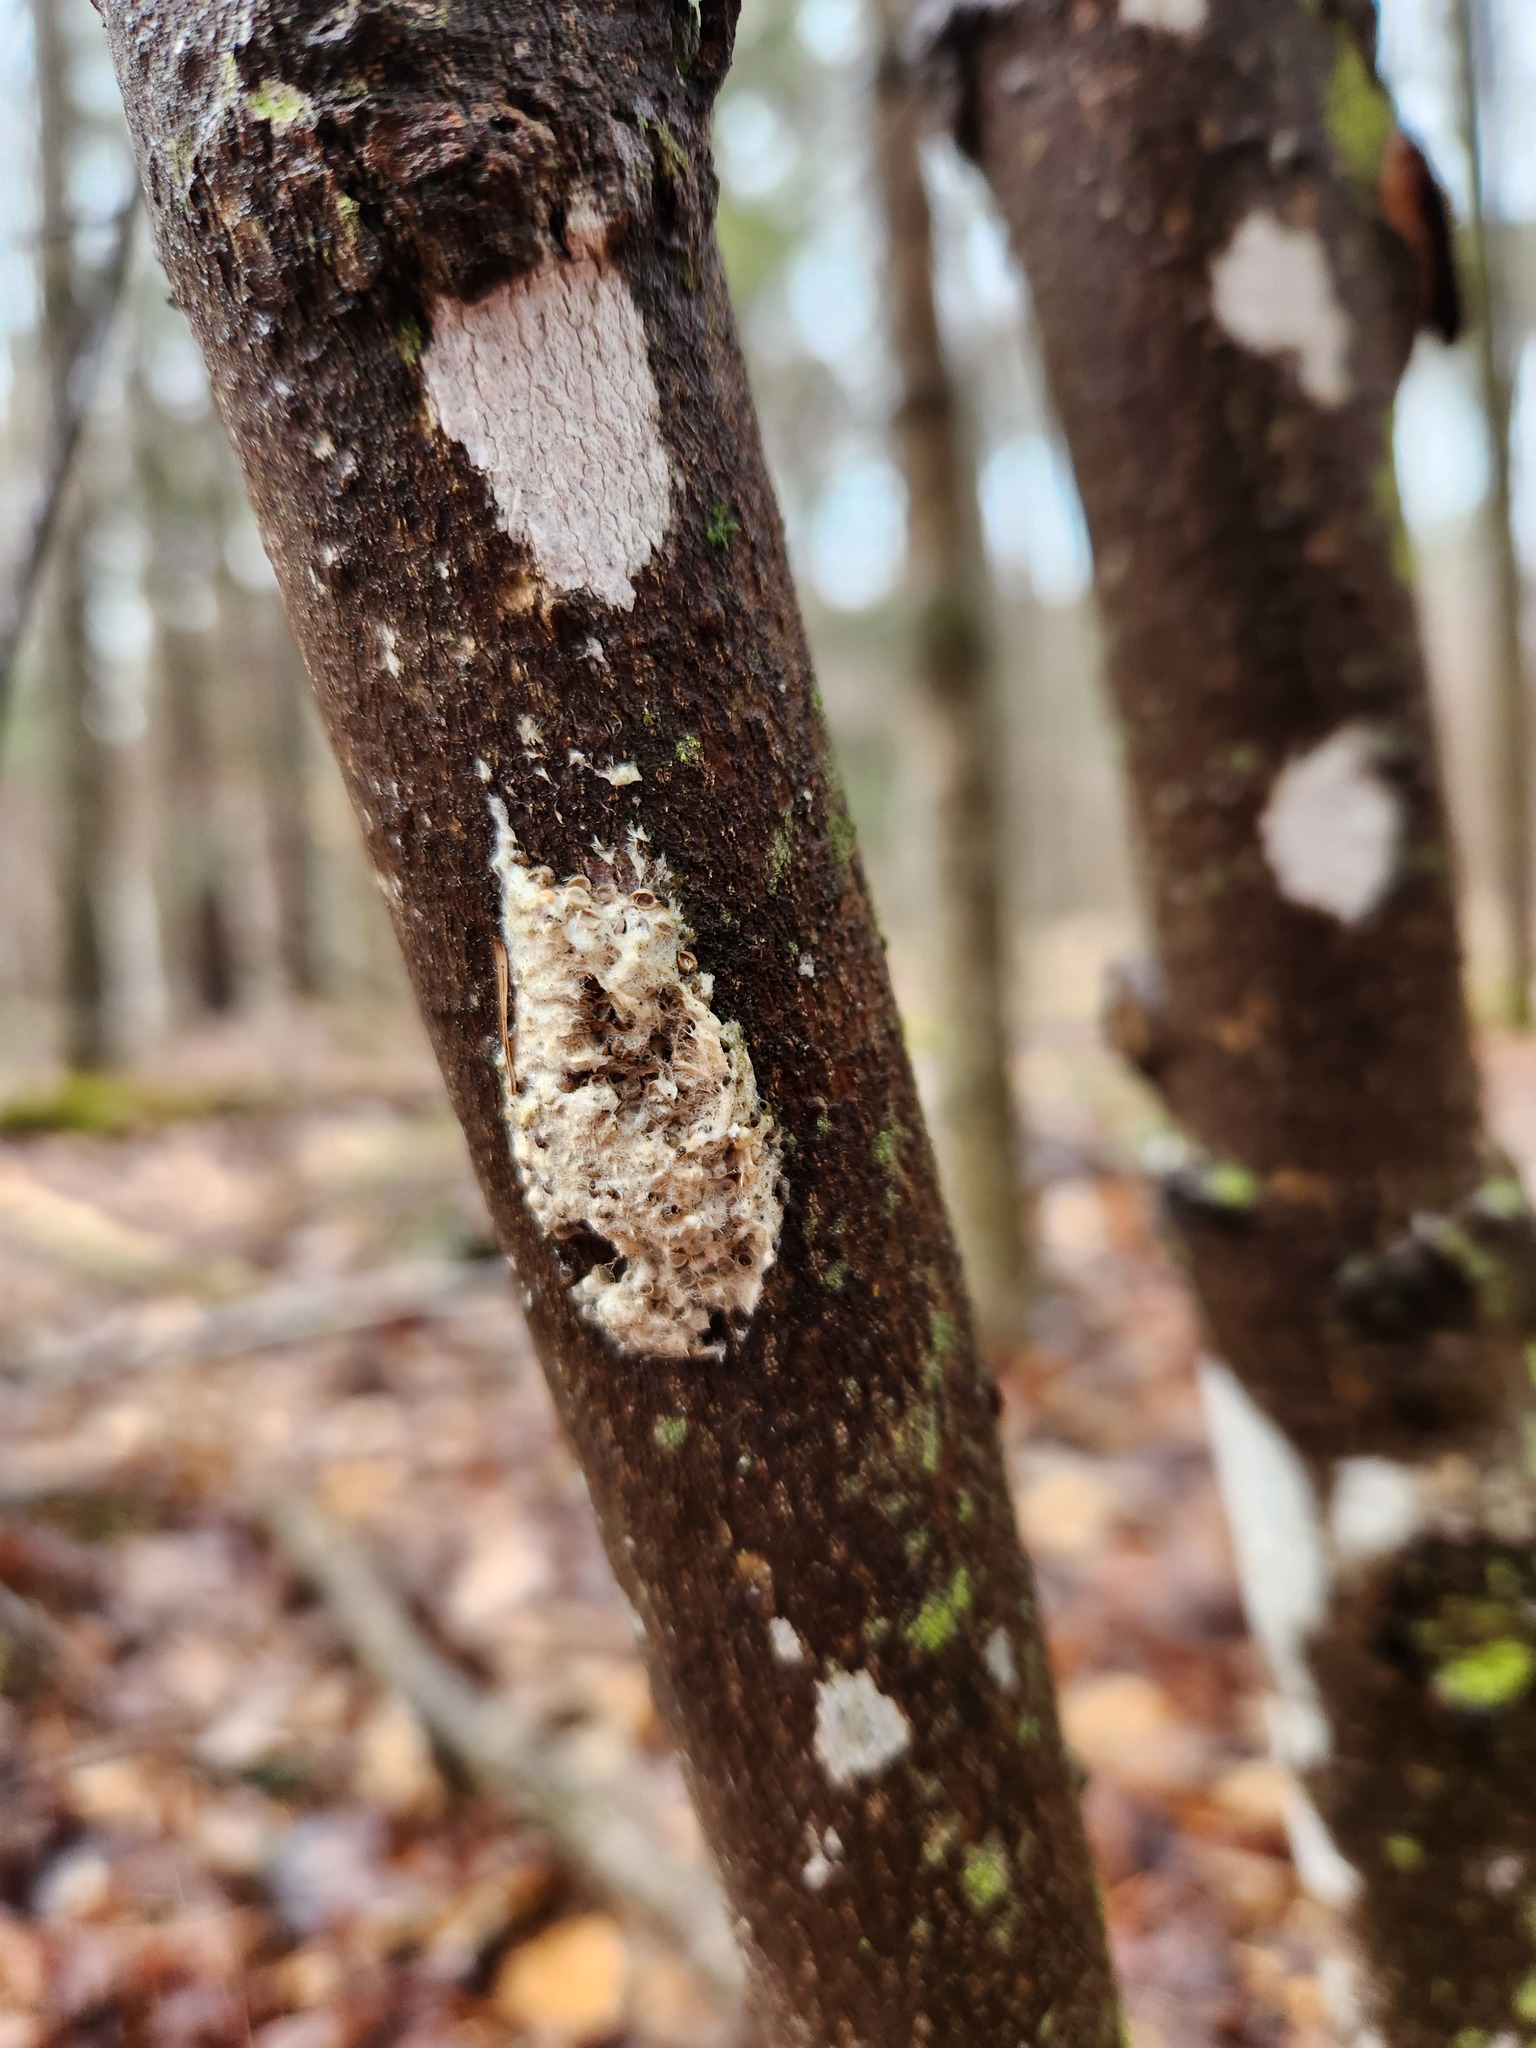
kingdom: Animalia
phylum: Arthropoda
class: Insecta
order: Lepidoptera
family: Erebidae
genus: Lymantria
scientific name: Lymantria dispar
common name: Gypsy moth
